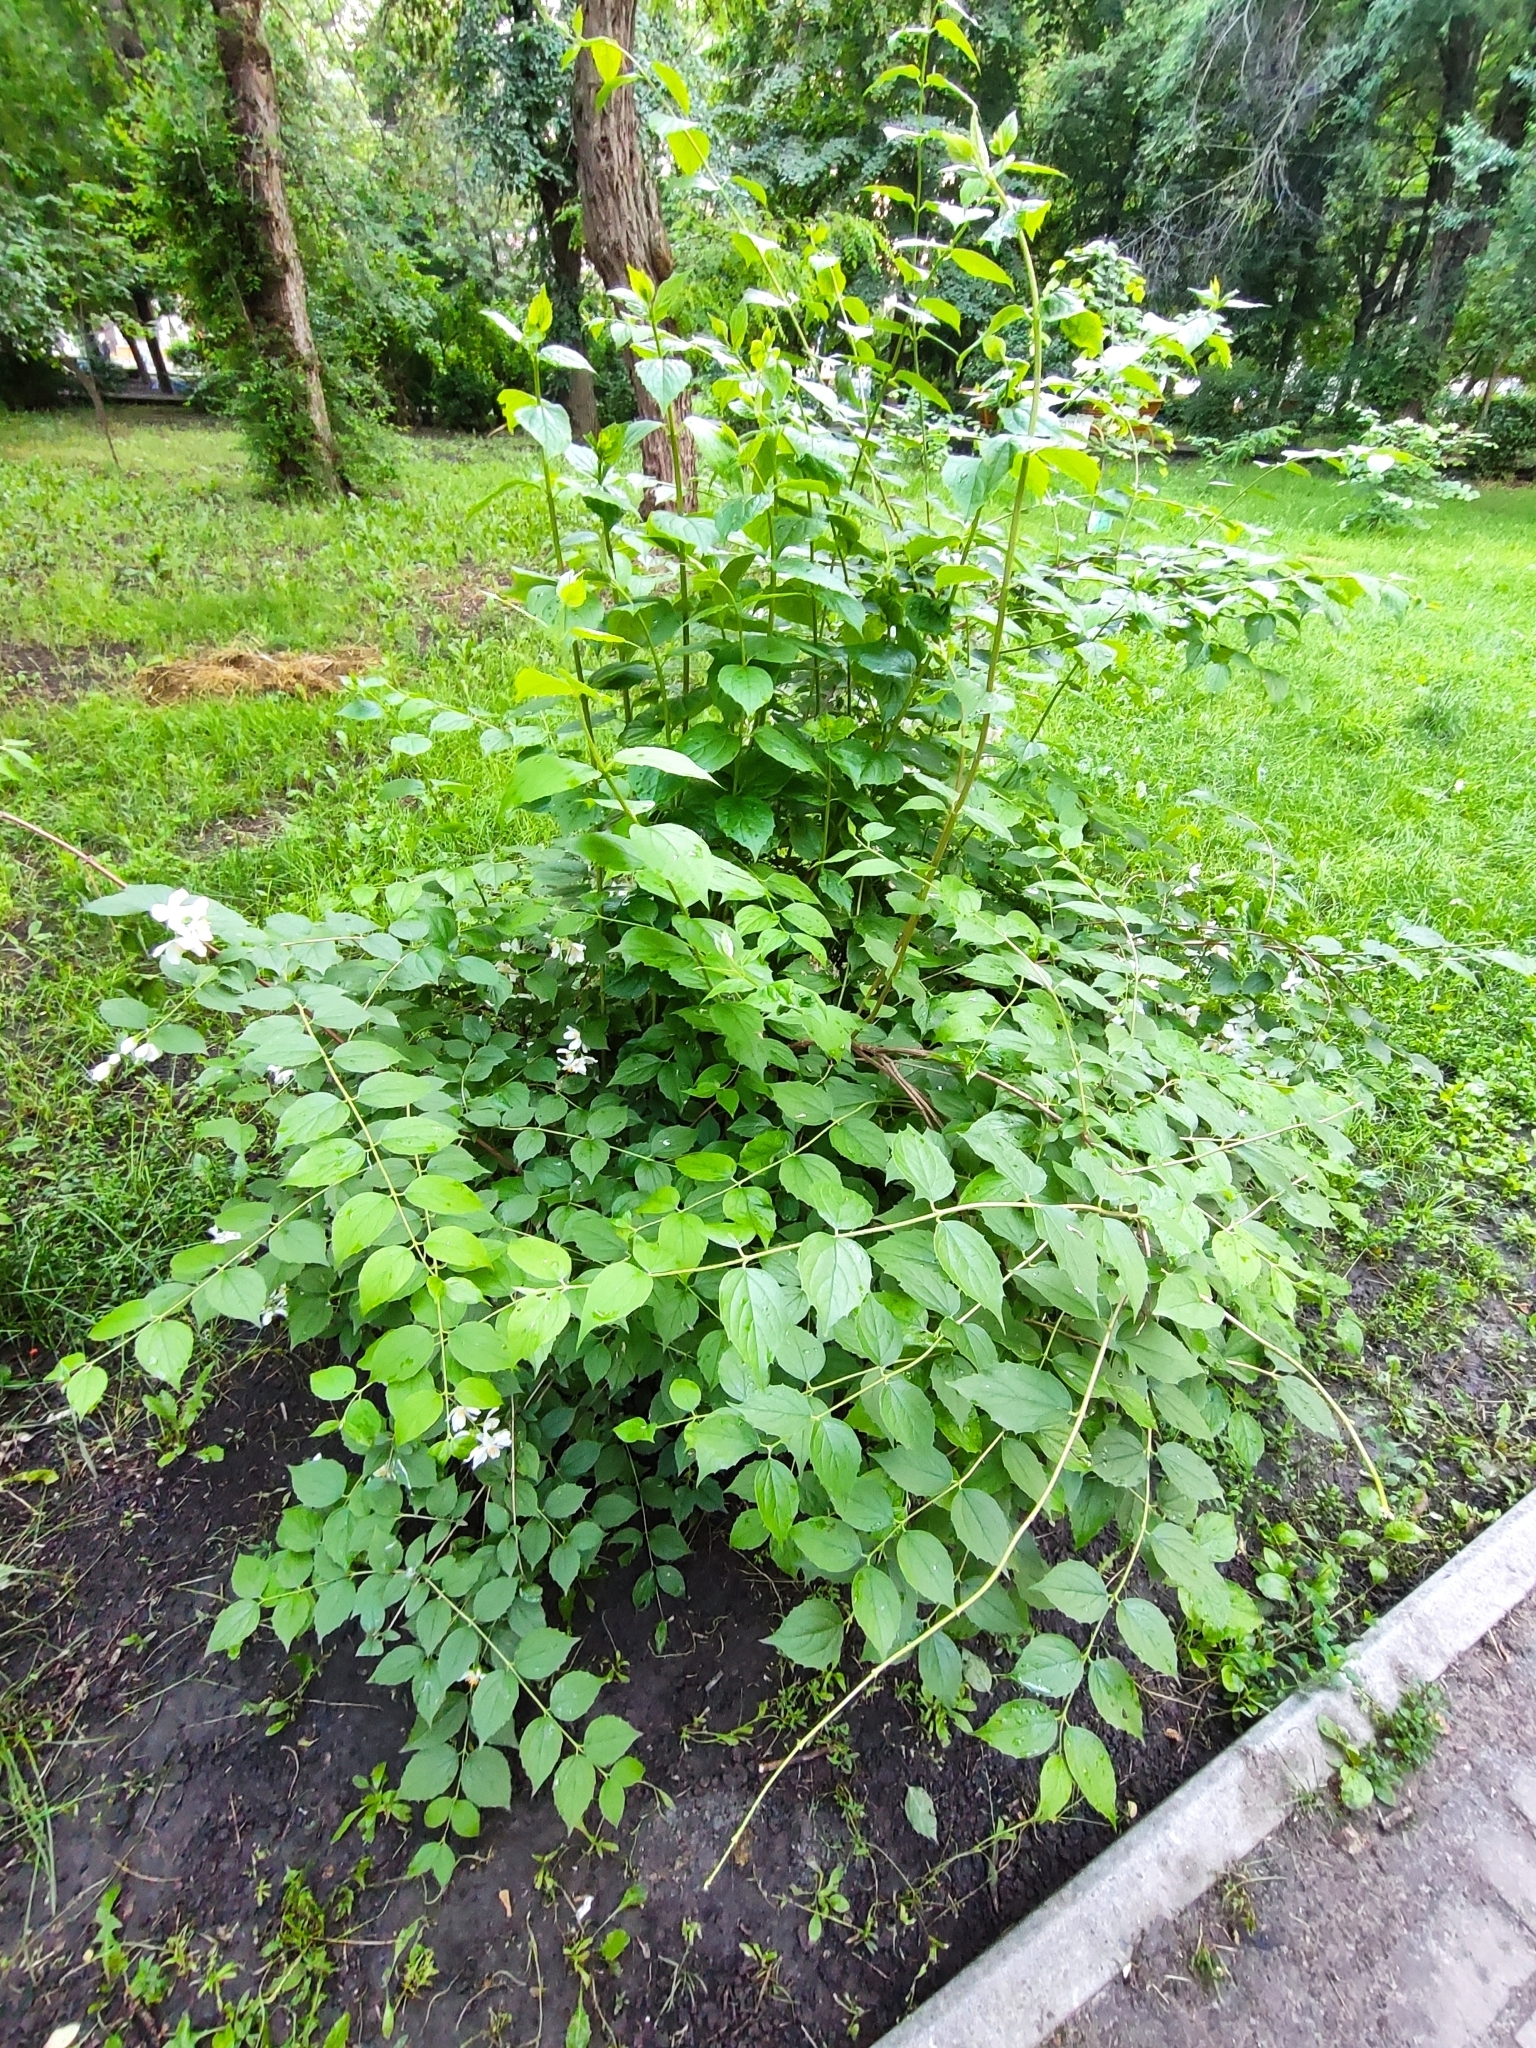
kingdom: Plantae
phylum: Tracheophyta
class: Magnoliopsida
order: Cornales
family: Hydrangeaceae
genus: Philadelphus
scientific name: Philadelphus coronarius
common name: Mock orange
